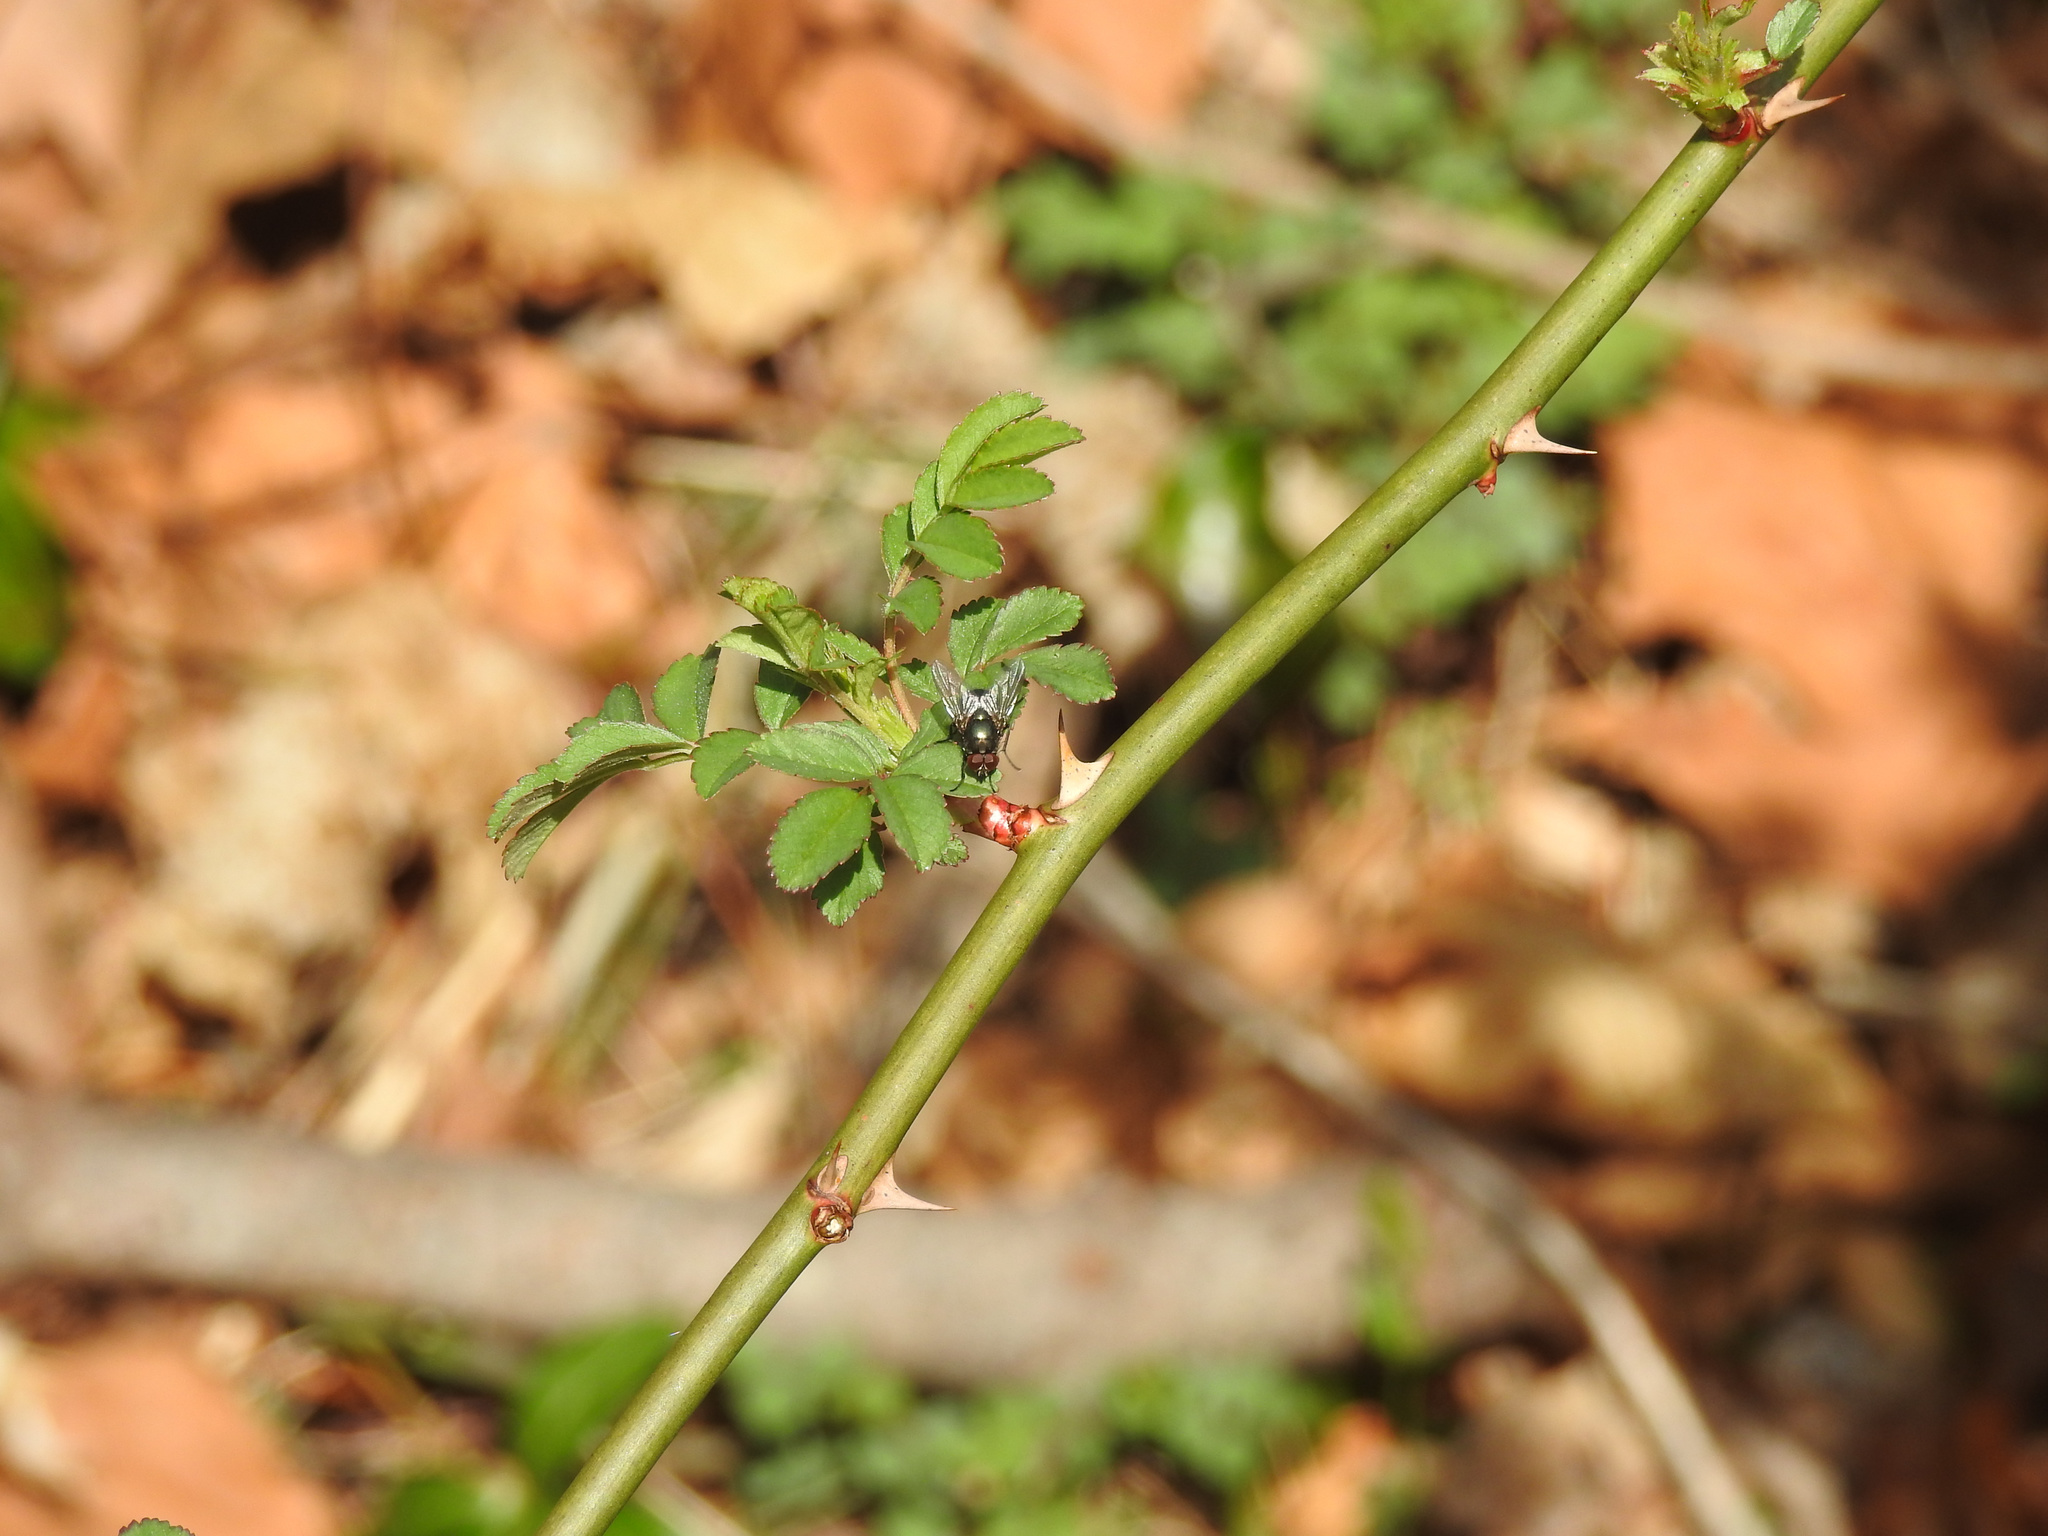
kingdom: Plantae
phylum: Tracheophyta
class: Magnoliopsida
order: Rosales
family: Rosaceae
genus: Rosa
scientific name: Rosa multiflora
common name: Multiflora rose
